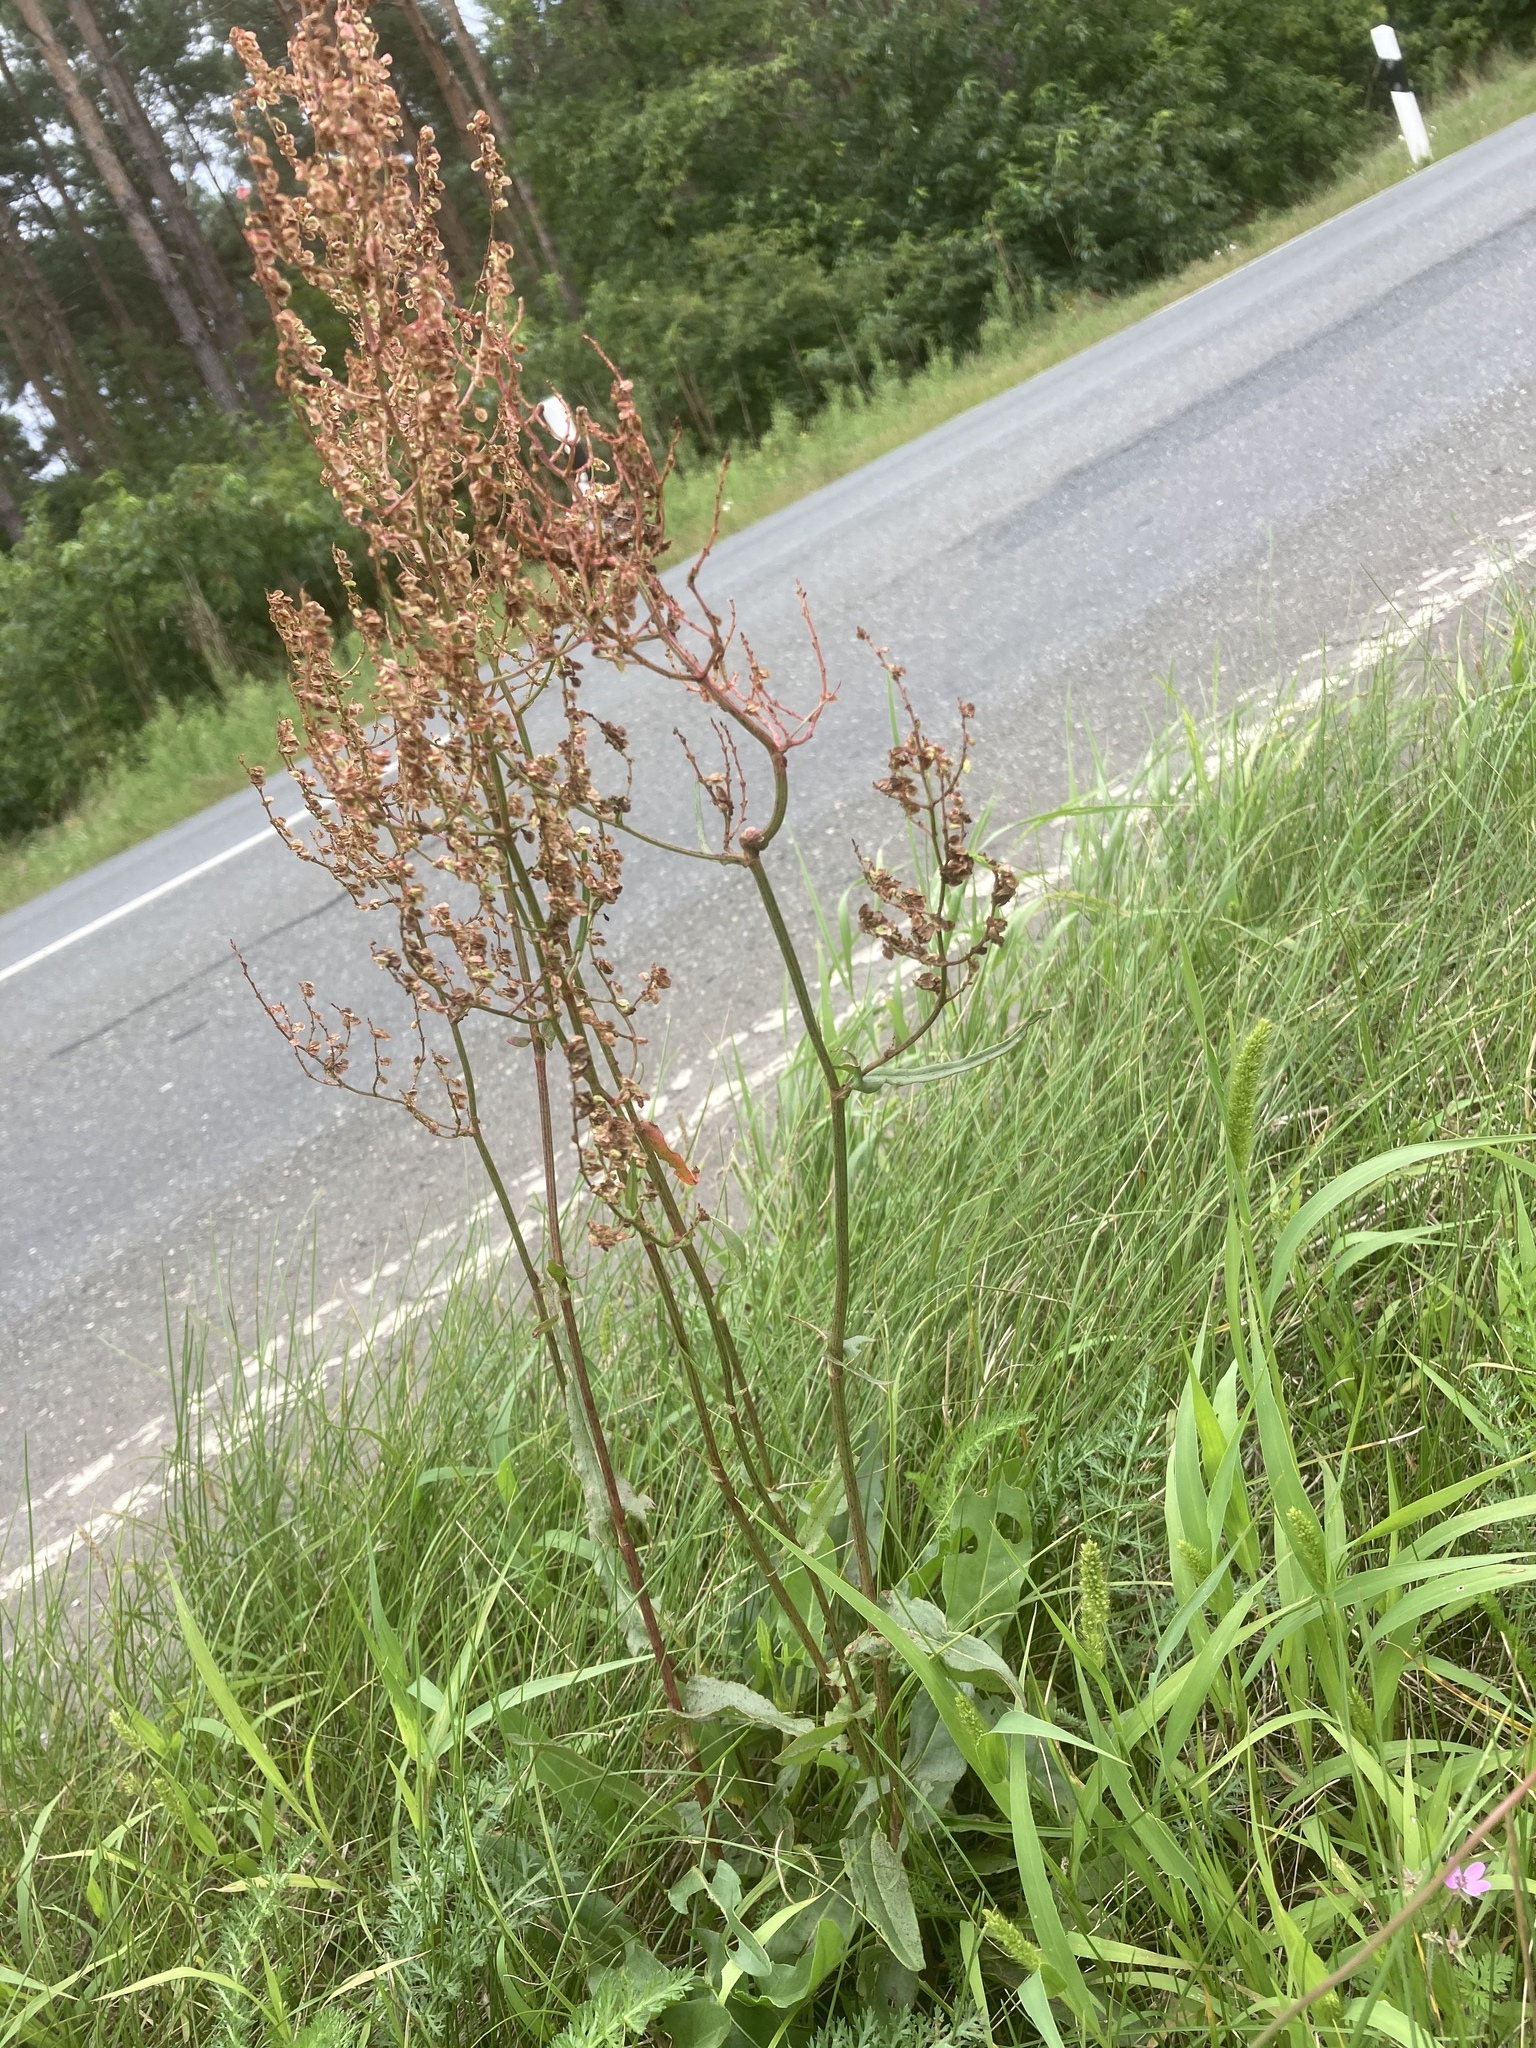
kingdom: Plantae
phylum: Tracheophyta
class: Magnoliopsida
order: Caryophyllales
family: Polygonaceae
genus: Rumex
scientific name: Rumex thyrsiflorus
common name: Garden sorrel
